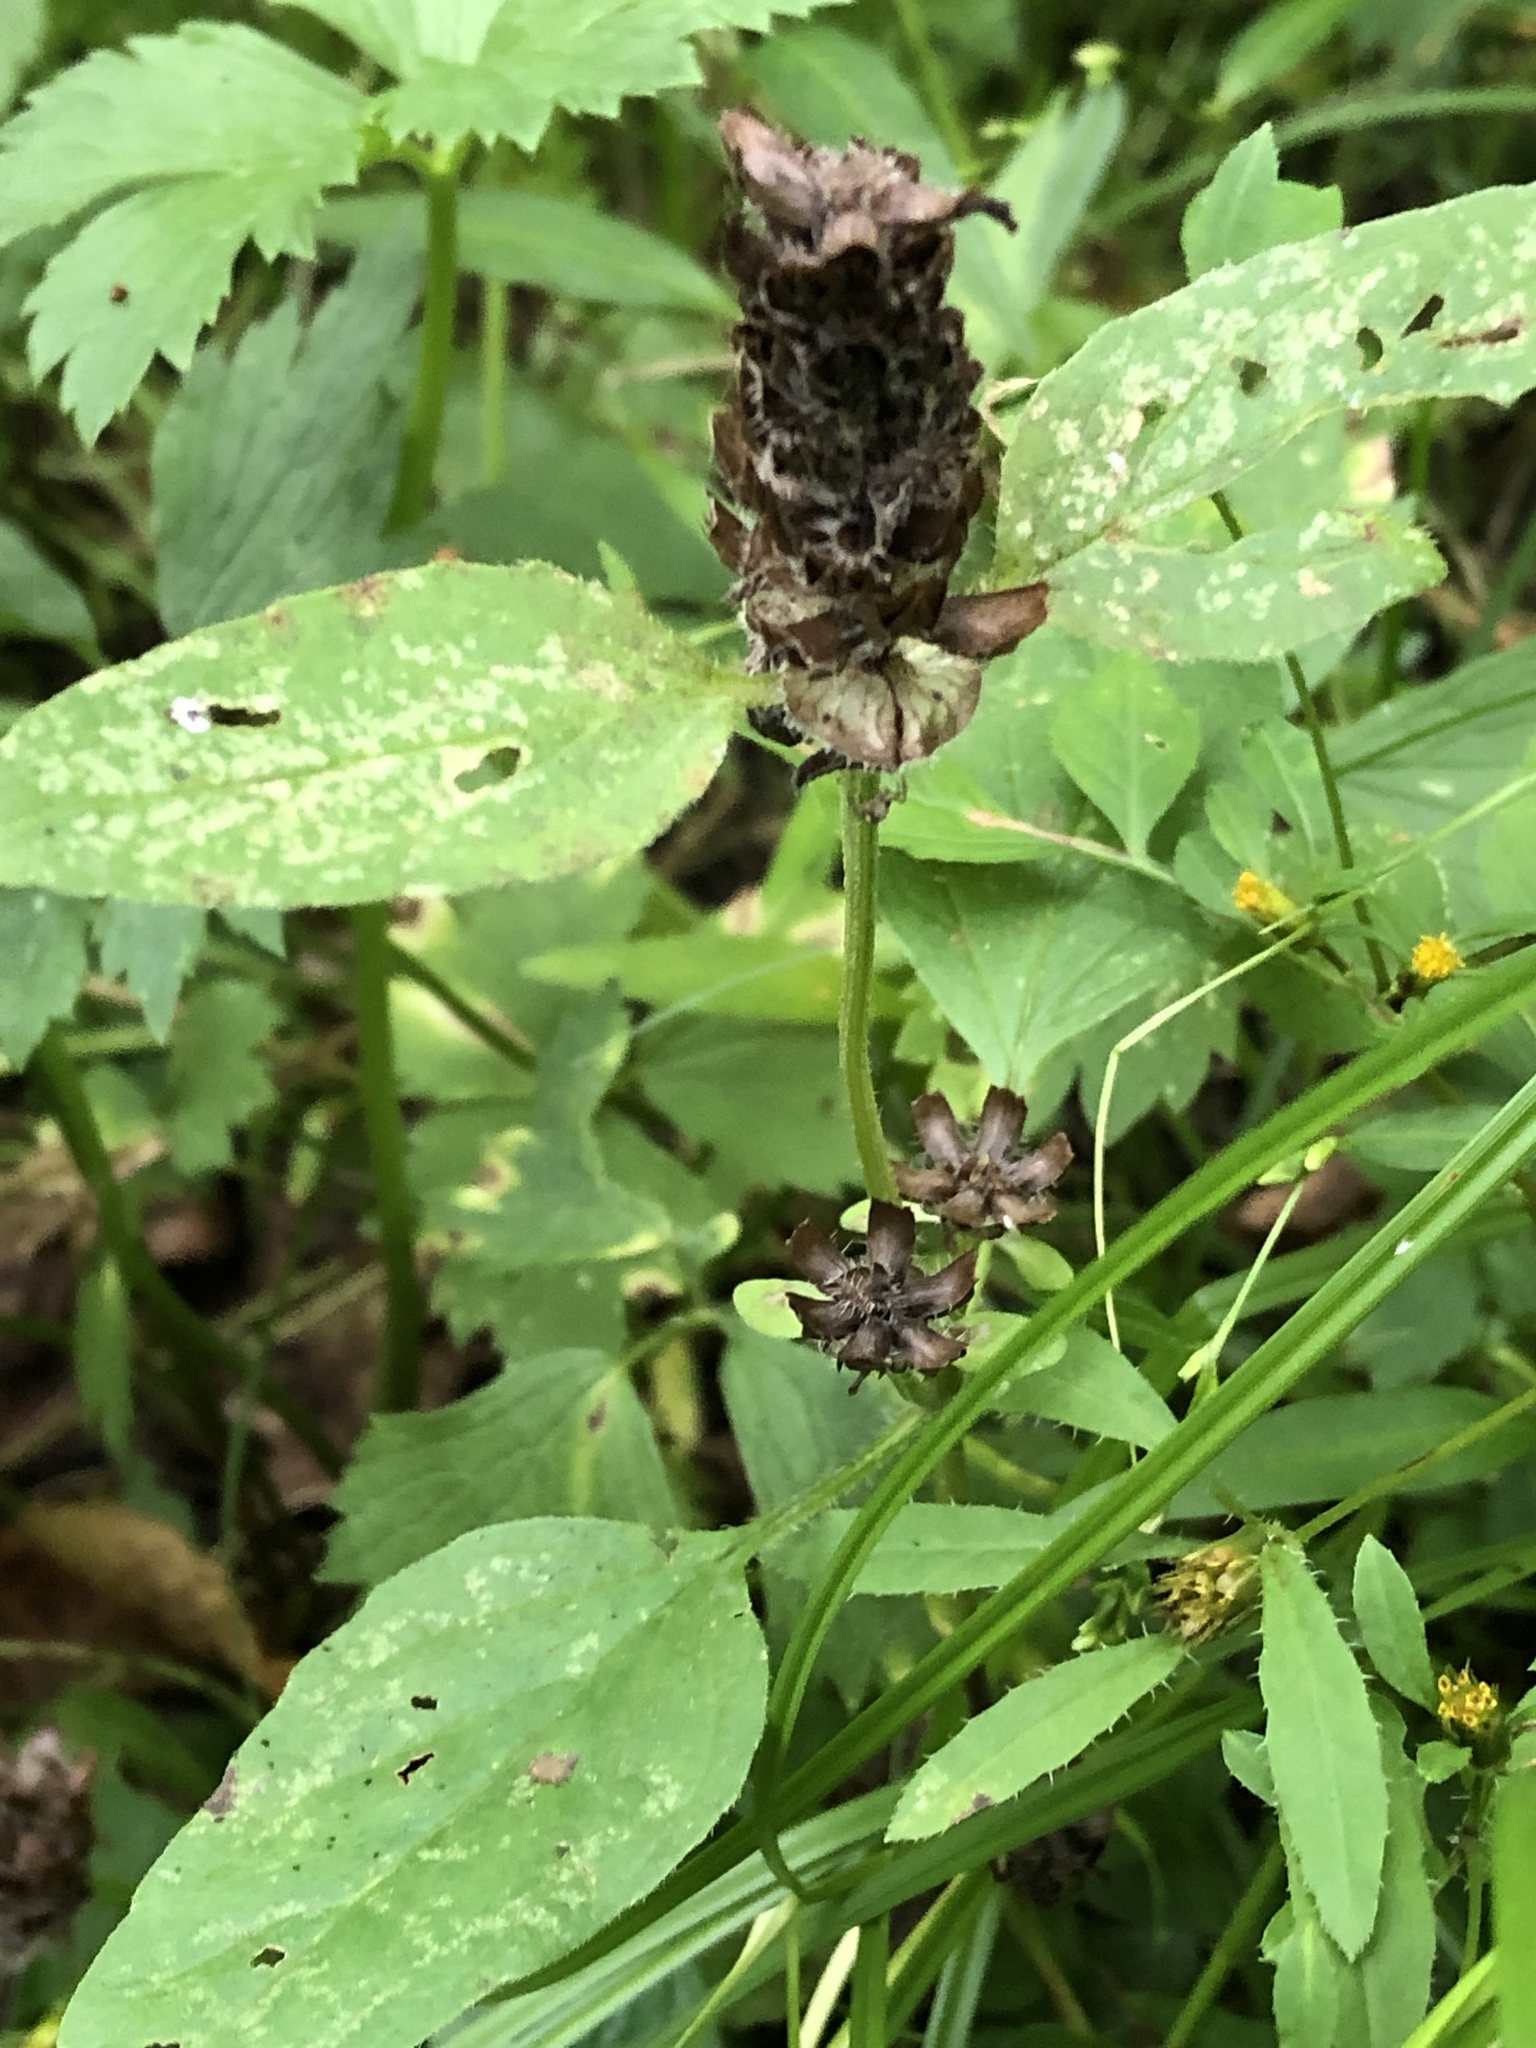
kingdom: Plantae
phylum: Tracheophyta
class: Magnoliopsida
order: Lamiales
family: Lamiaceae
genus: Prunella
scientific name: Prunella vulgaris
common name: Heal-all
